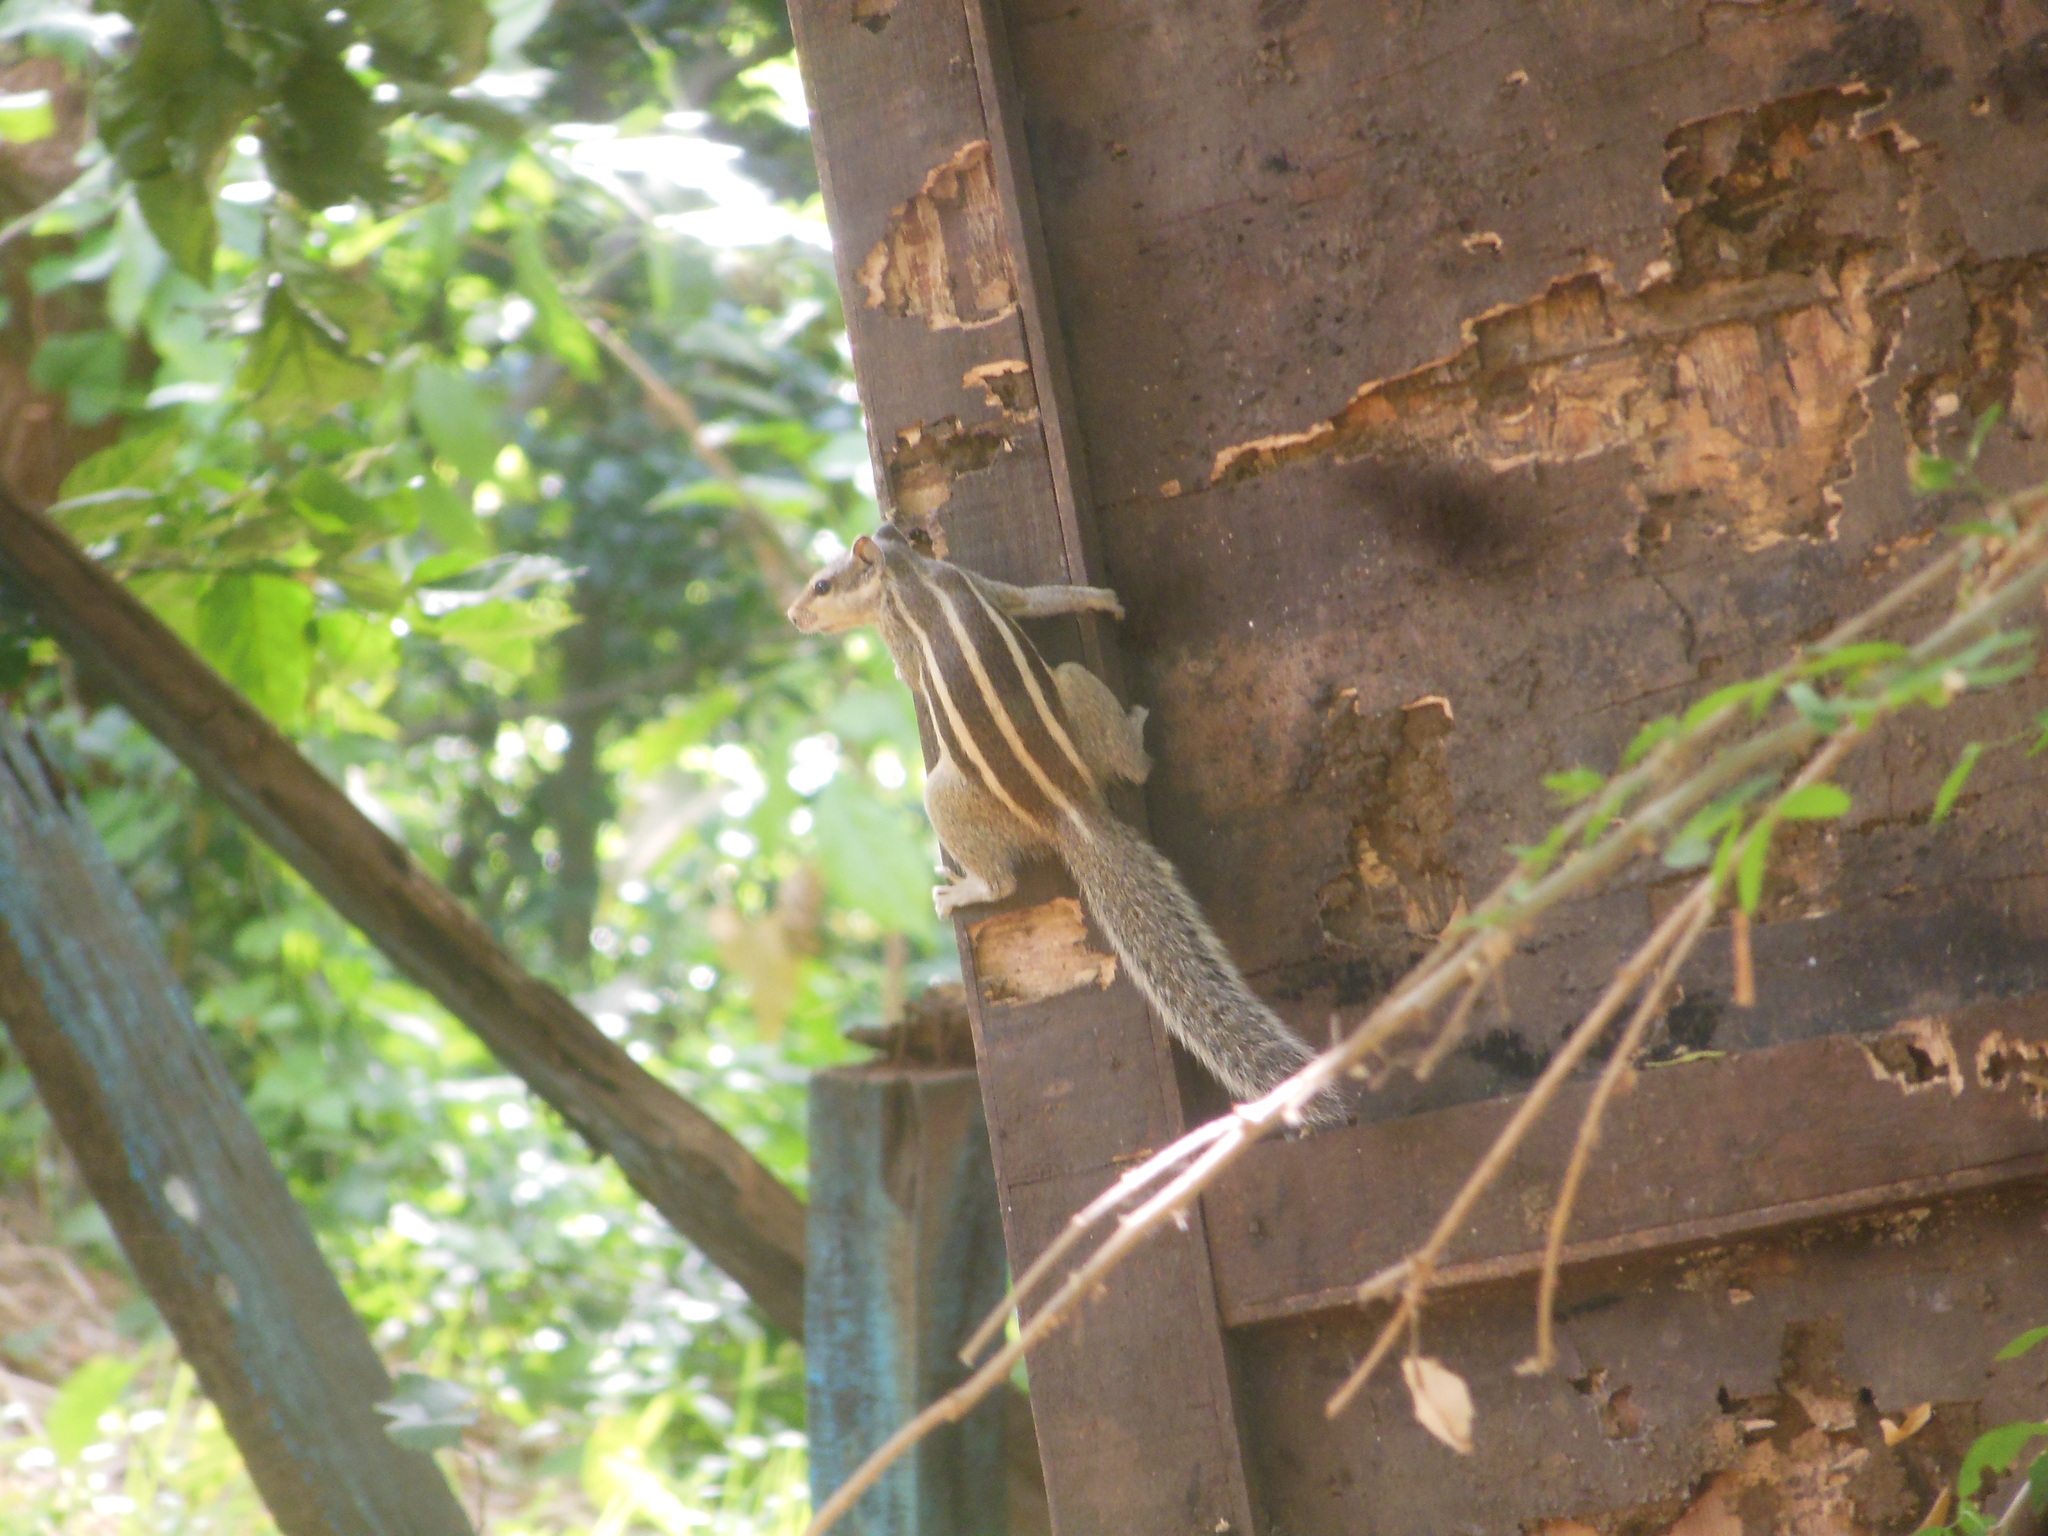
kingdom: Animalia
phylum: Chordata
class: Mammalia
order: Rodentia
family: Sciuridae
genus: Funambulus
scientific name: Funambulus pennantii
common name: Northern palm squirrel
